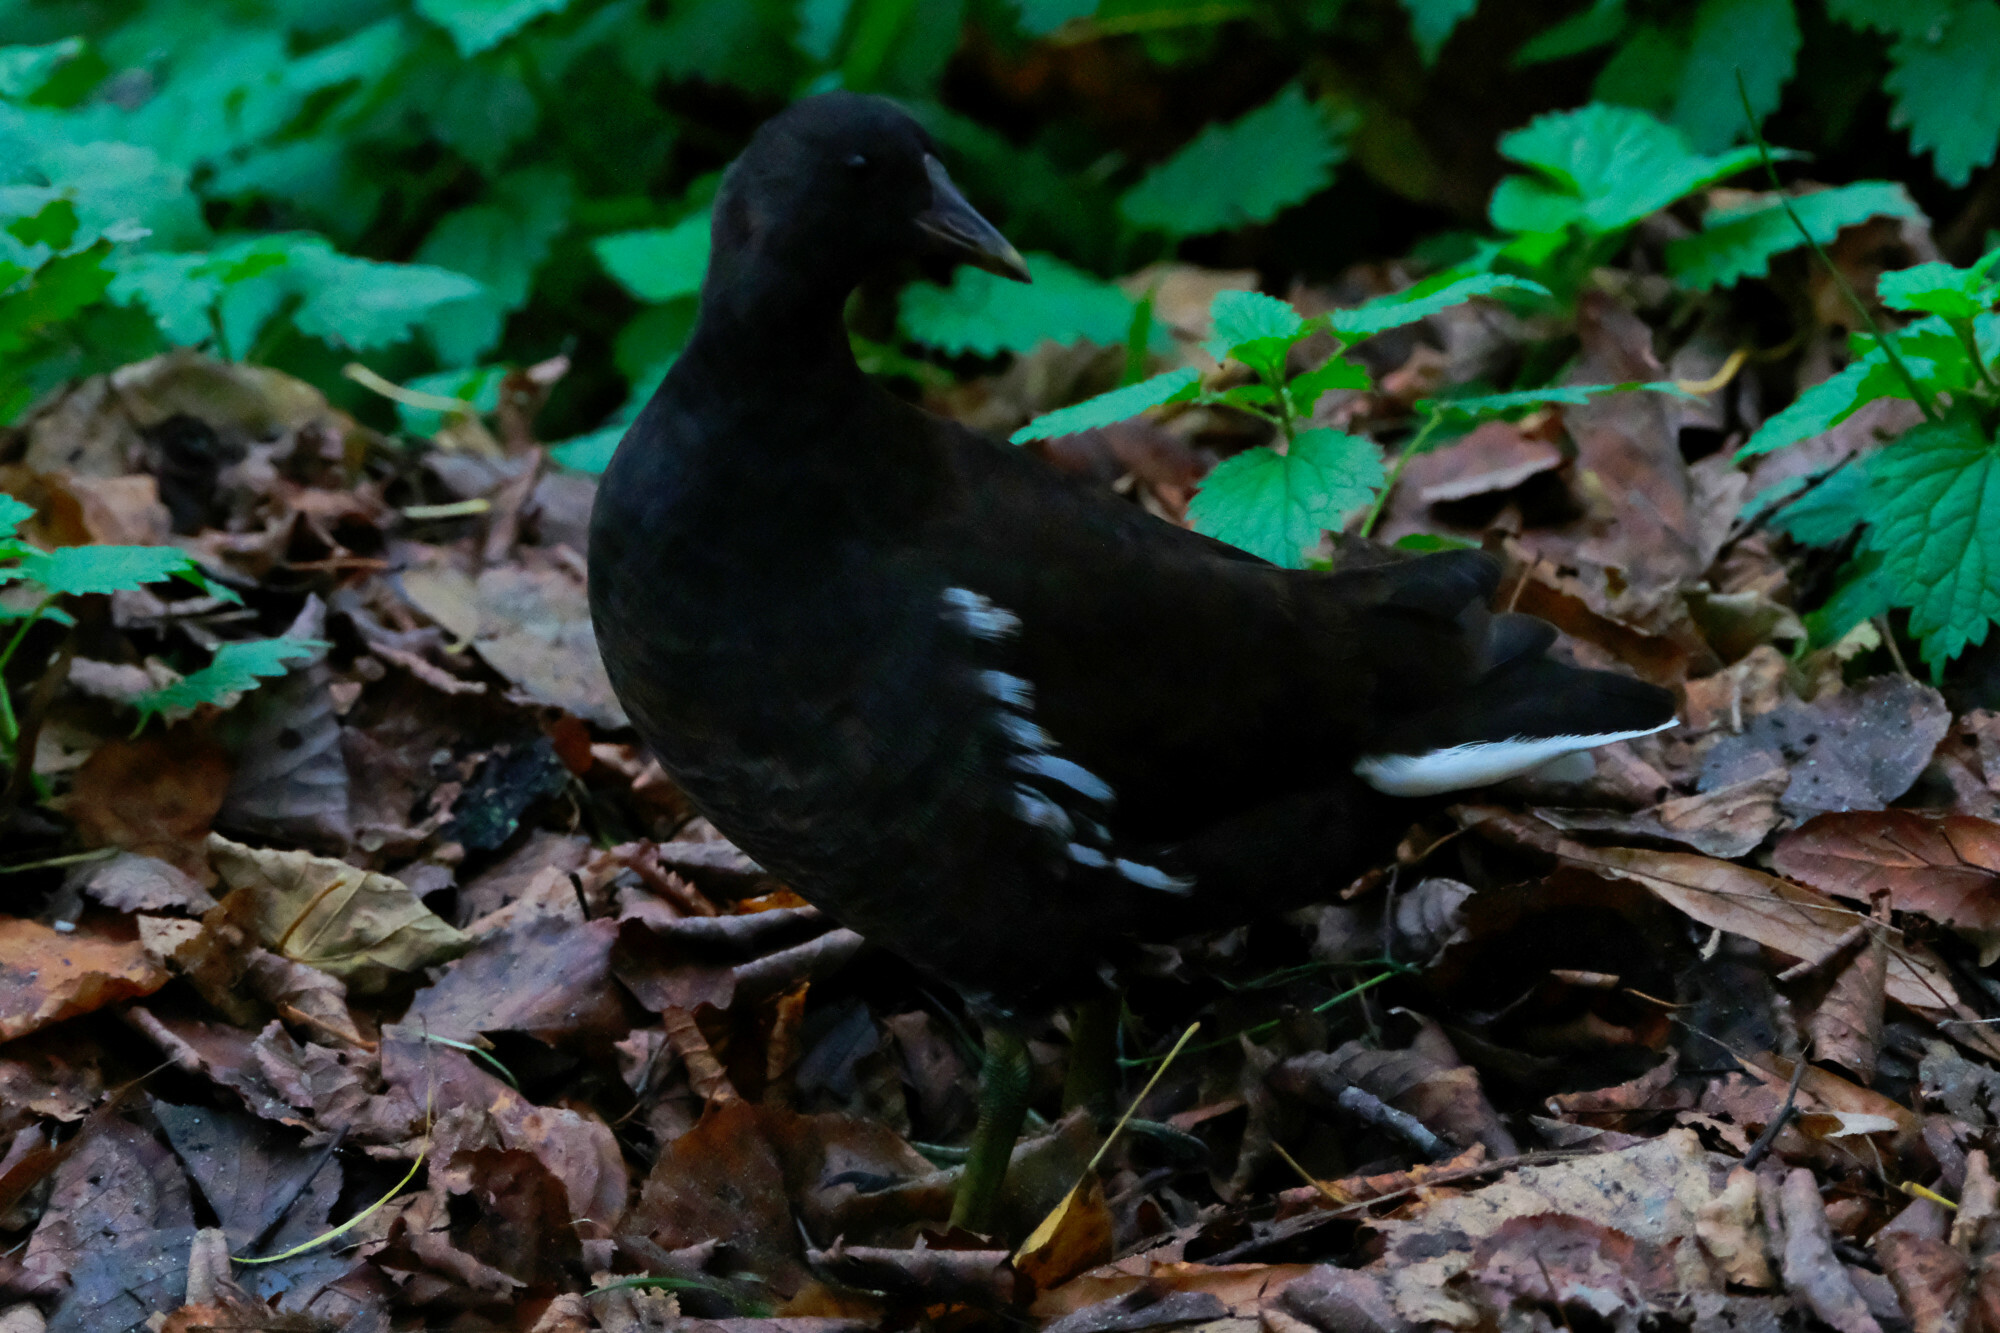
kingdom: Animalia
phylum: Chordata
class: Aves
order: Gruiformes
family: Rallidae
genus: Gallinula
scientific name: Gallinula chloropus
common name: Common moorhen
